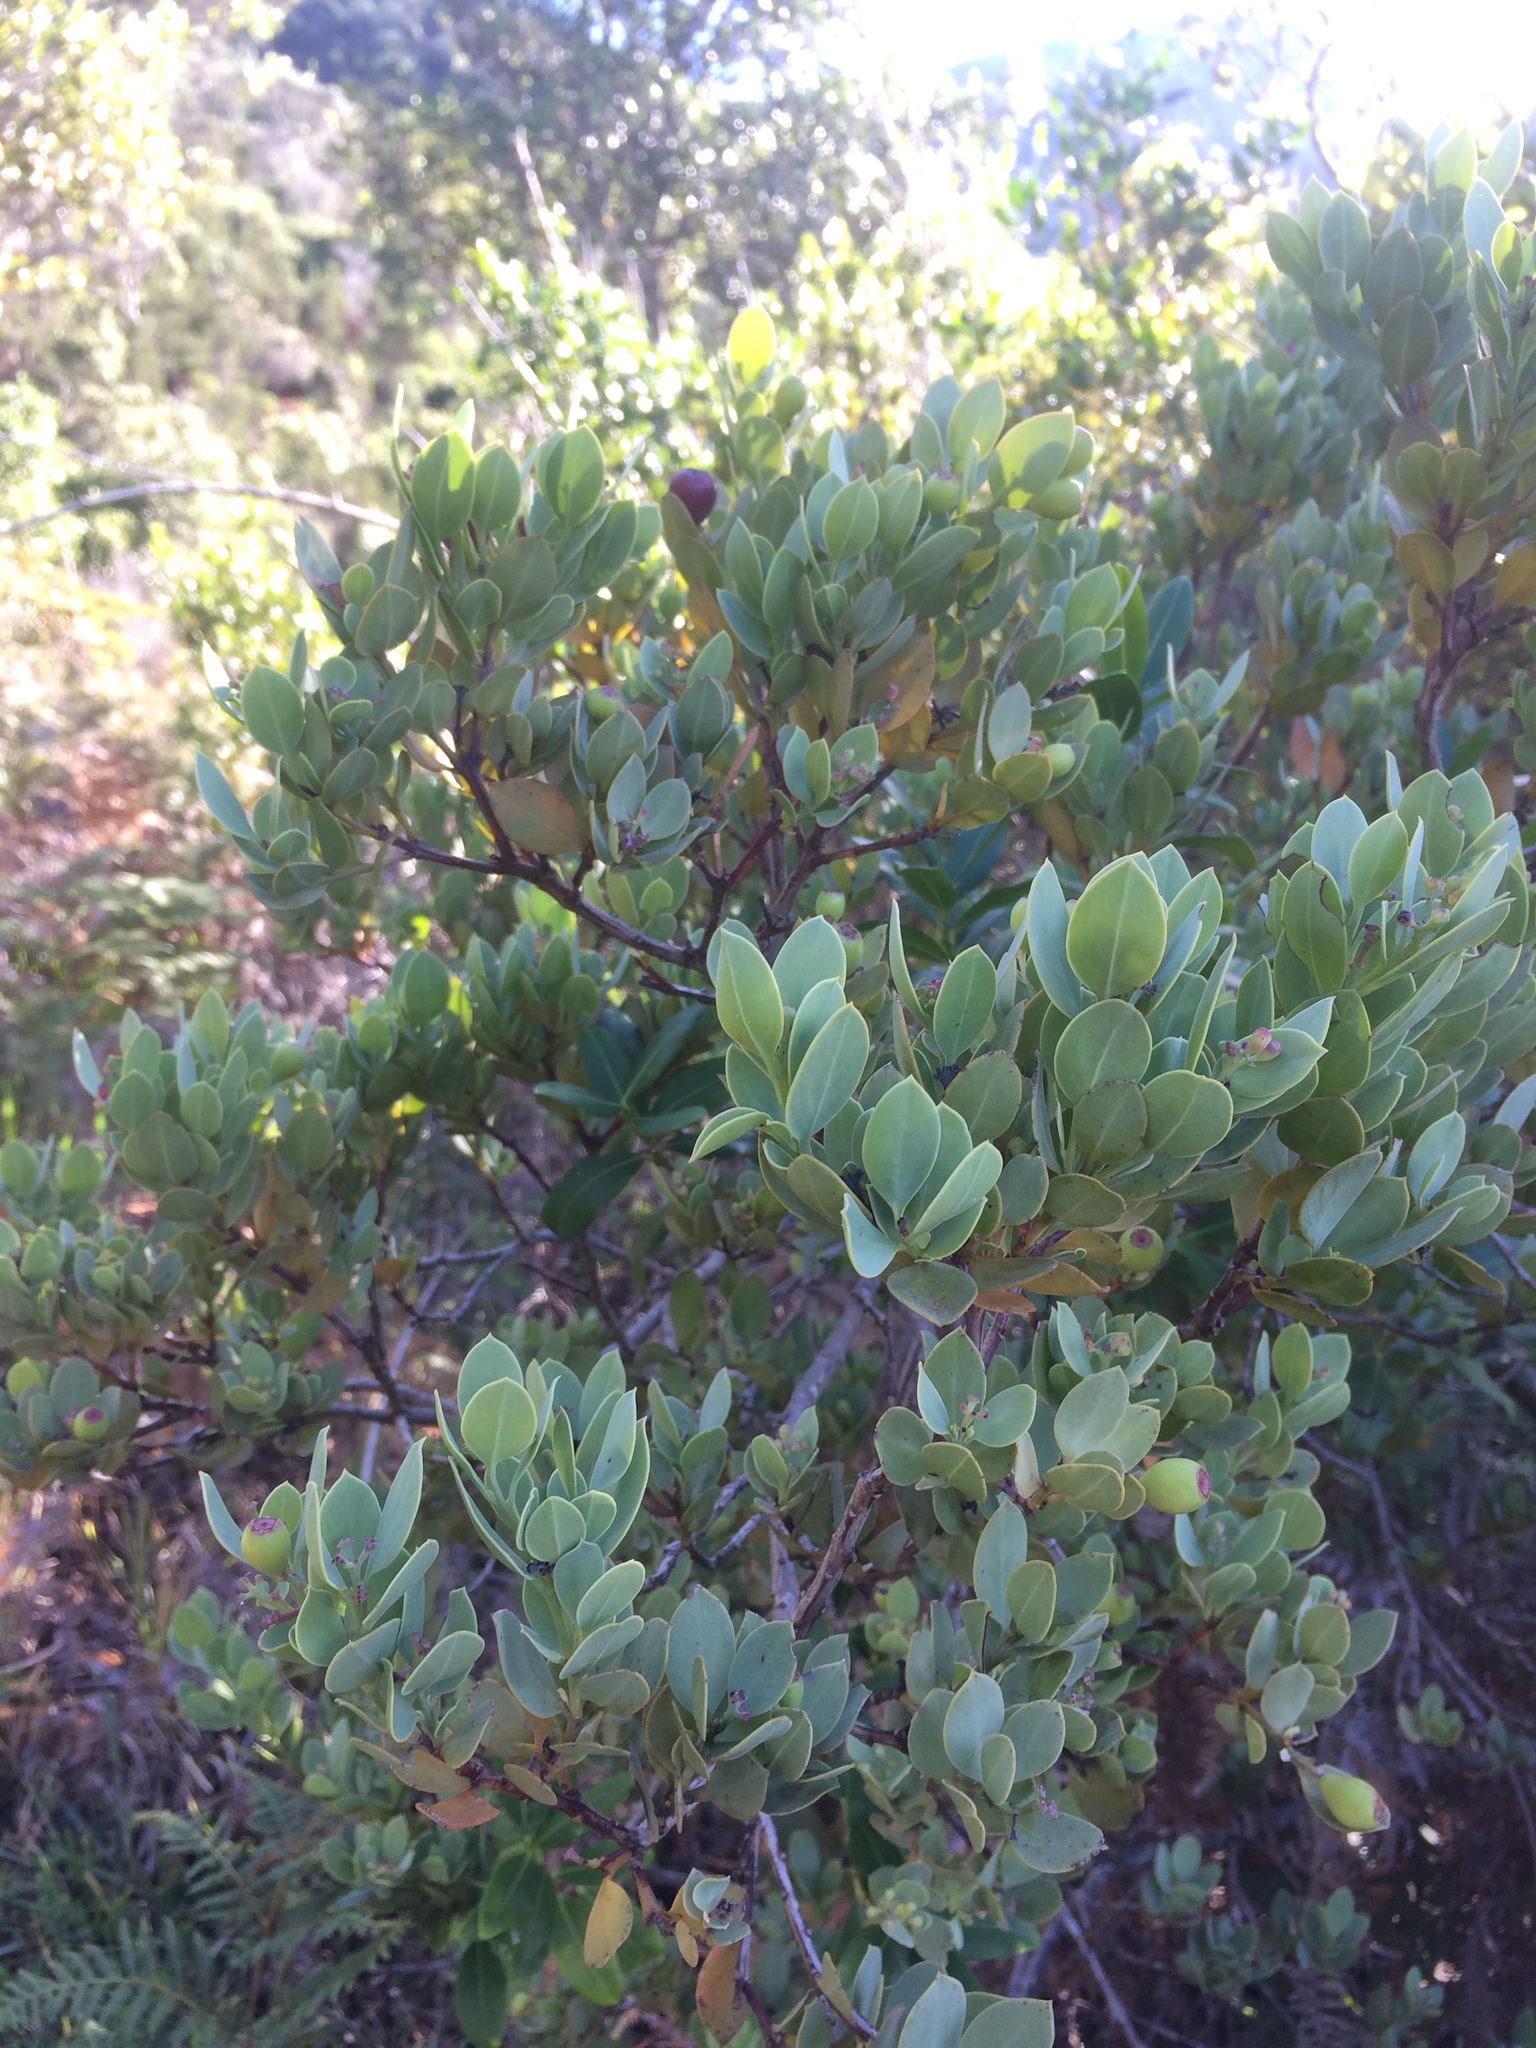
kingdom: Plantae
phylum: Tracheophyta
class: Magnoliopsida
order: Santalales
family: Santalaceae
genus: Osyris
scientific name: Osyris compressa
